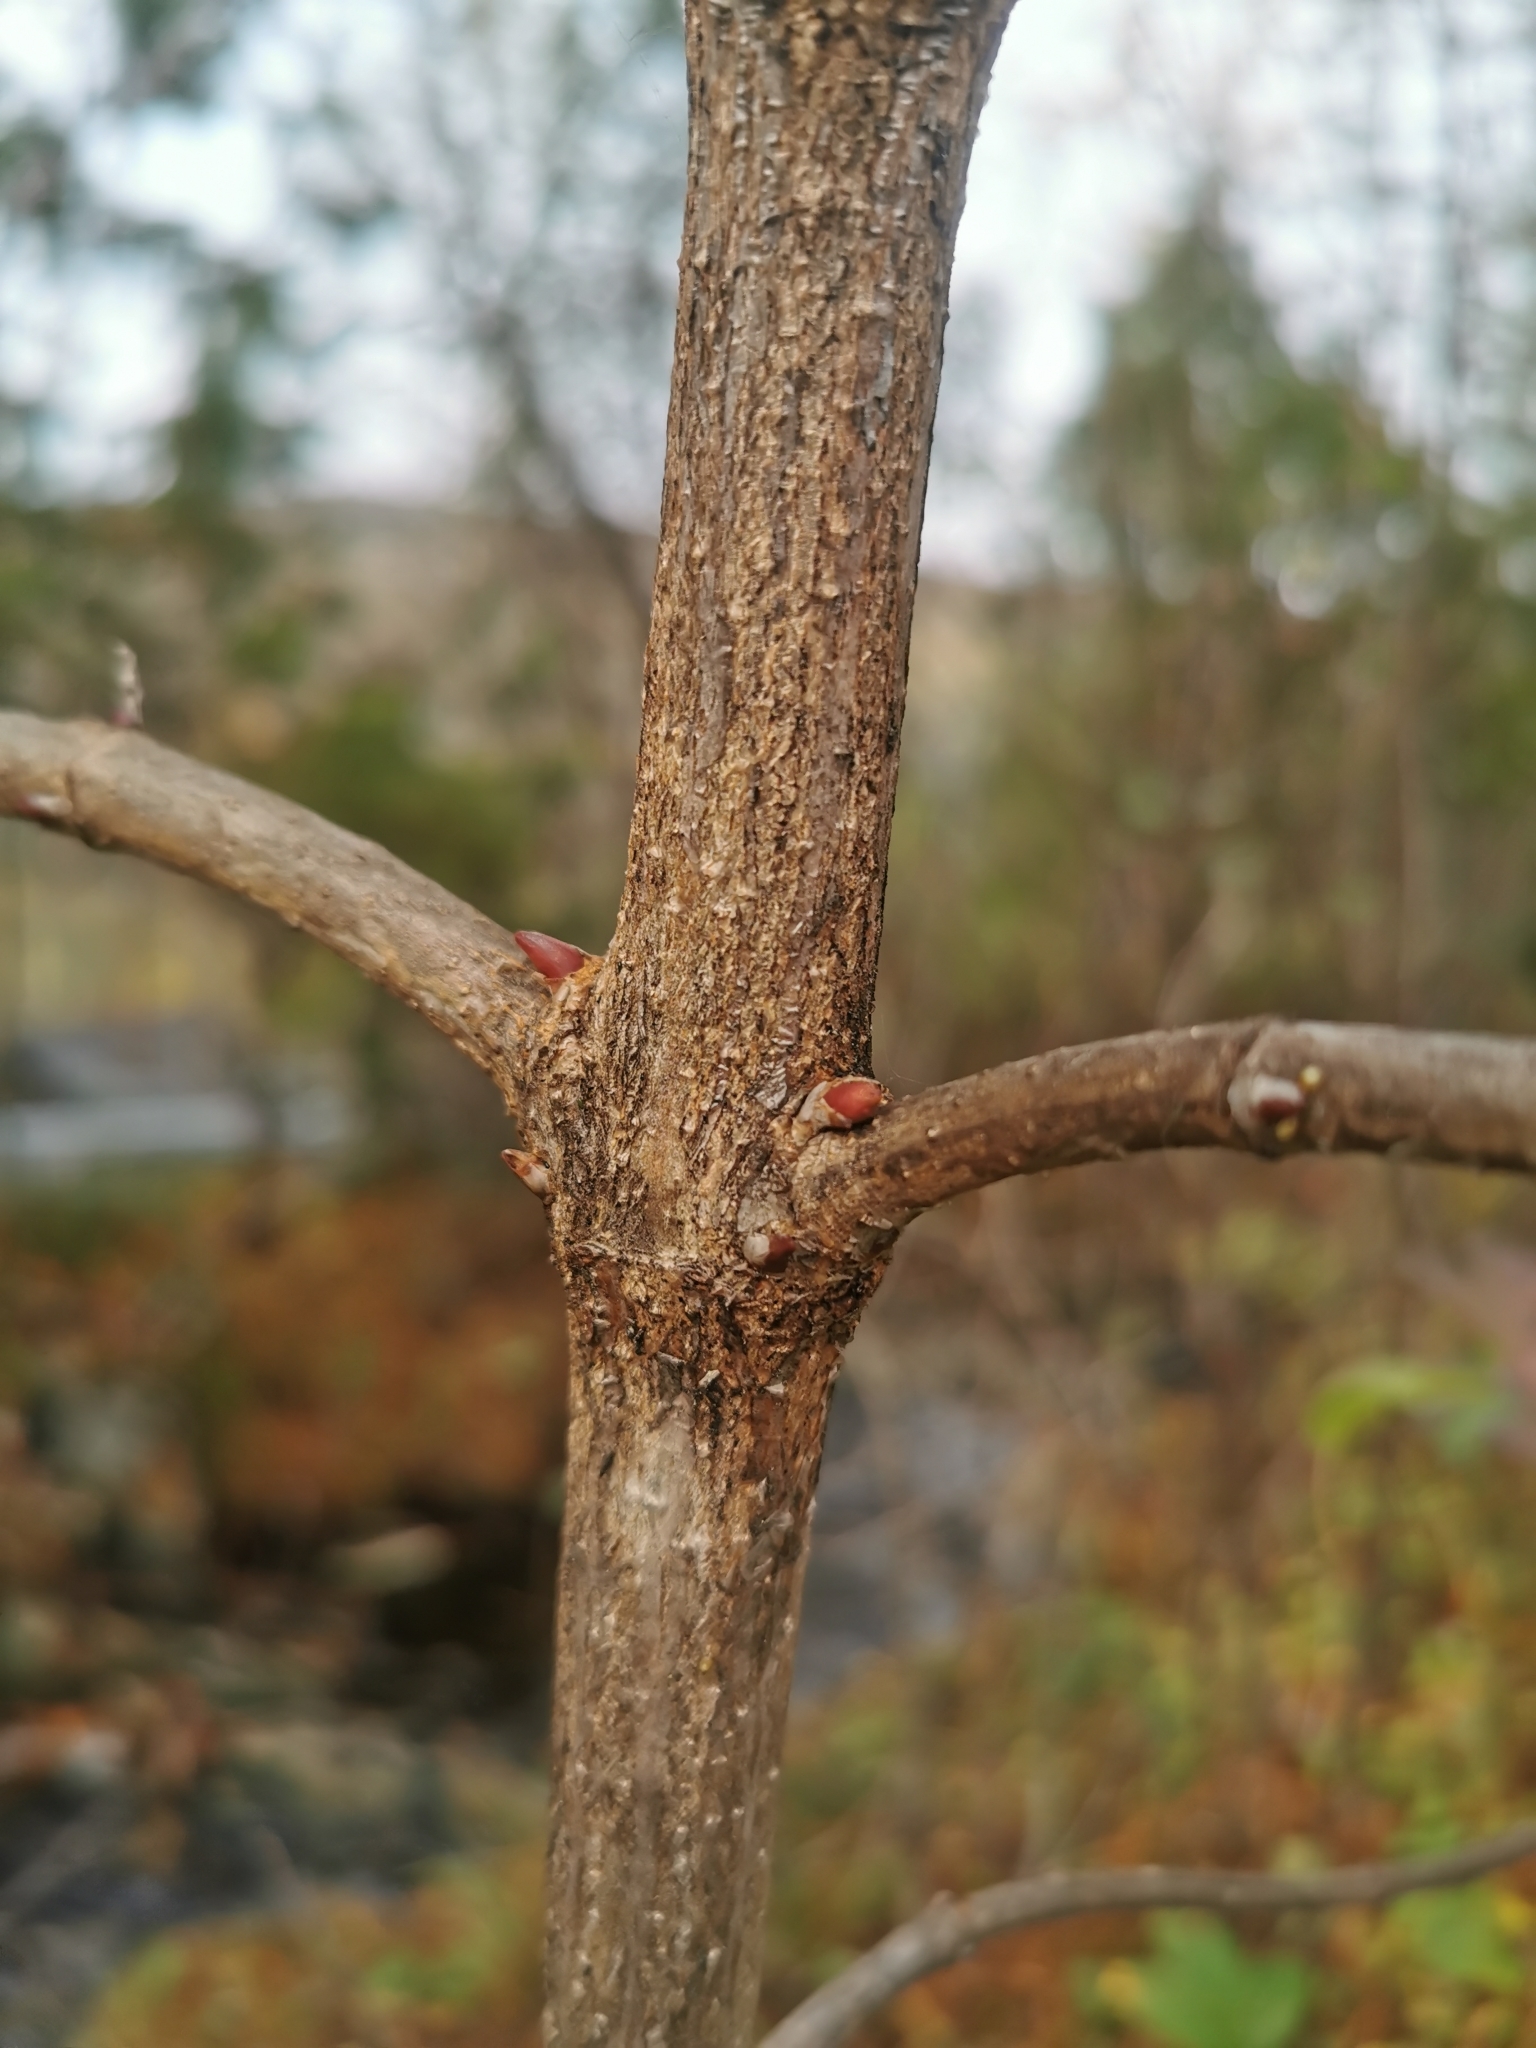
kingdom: Plantae
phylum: Tracheophyta
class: Magnoliopsida
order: Dipsacales
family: Viburnaceae
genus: Viburnum
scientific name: Viburnum opulus
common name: Guelder-rose
